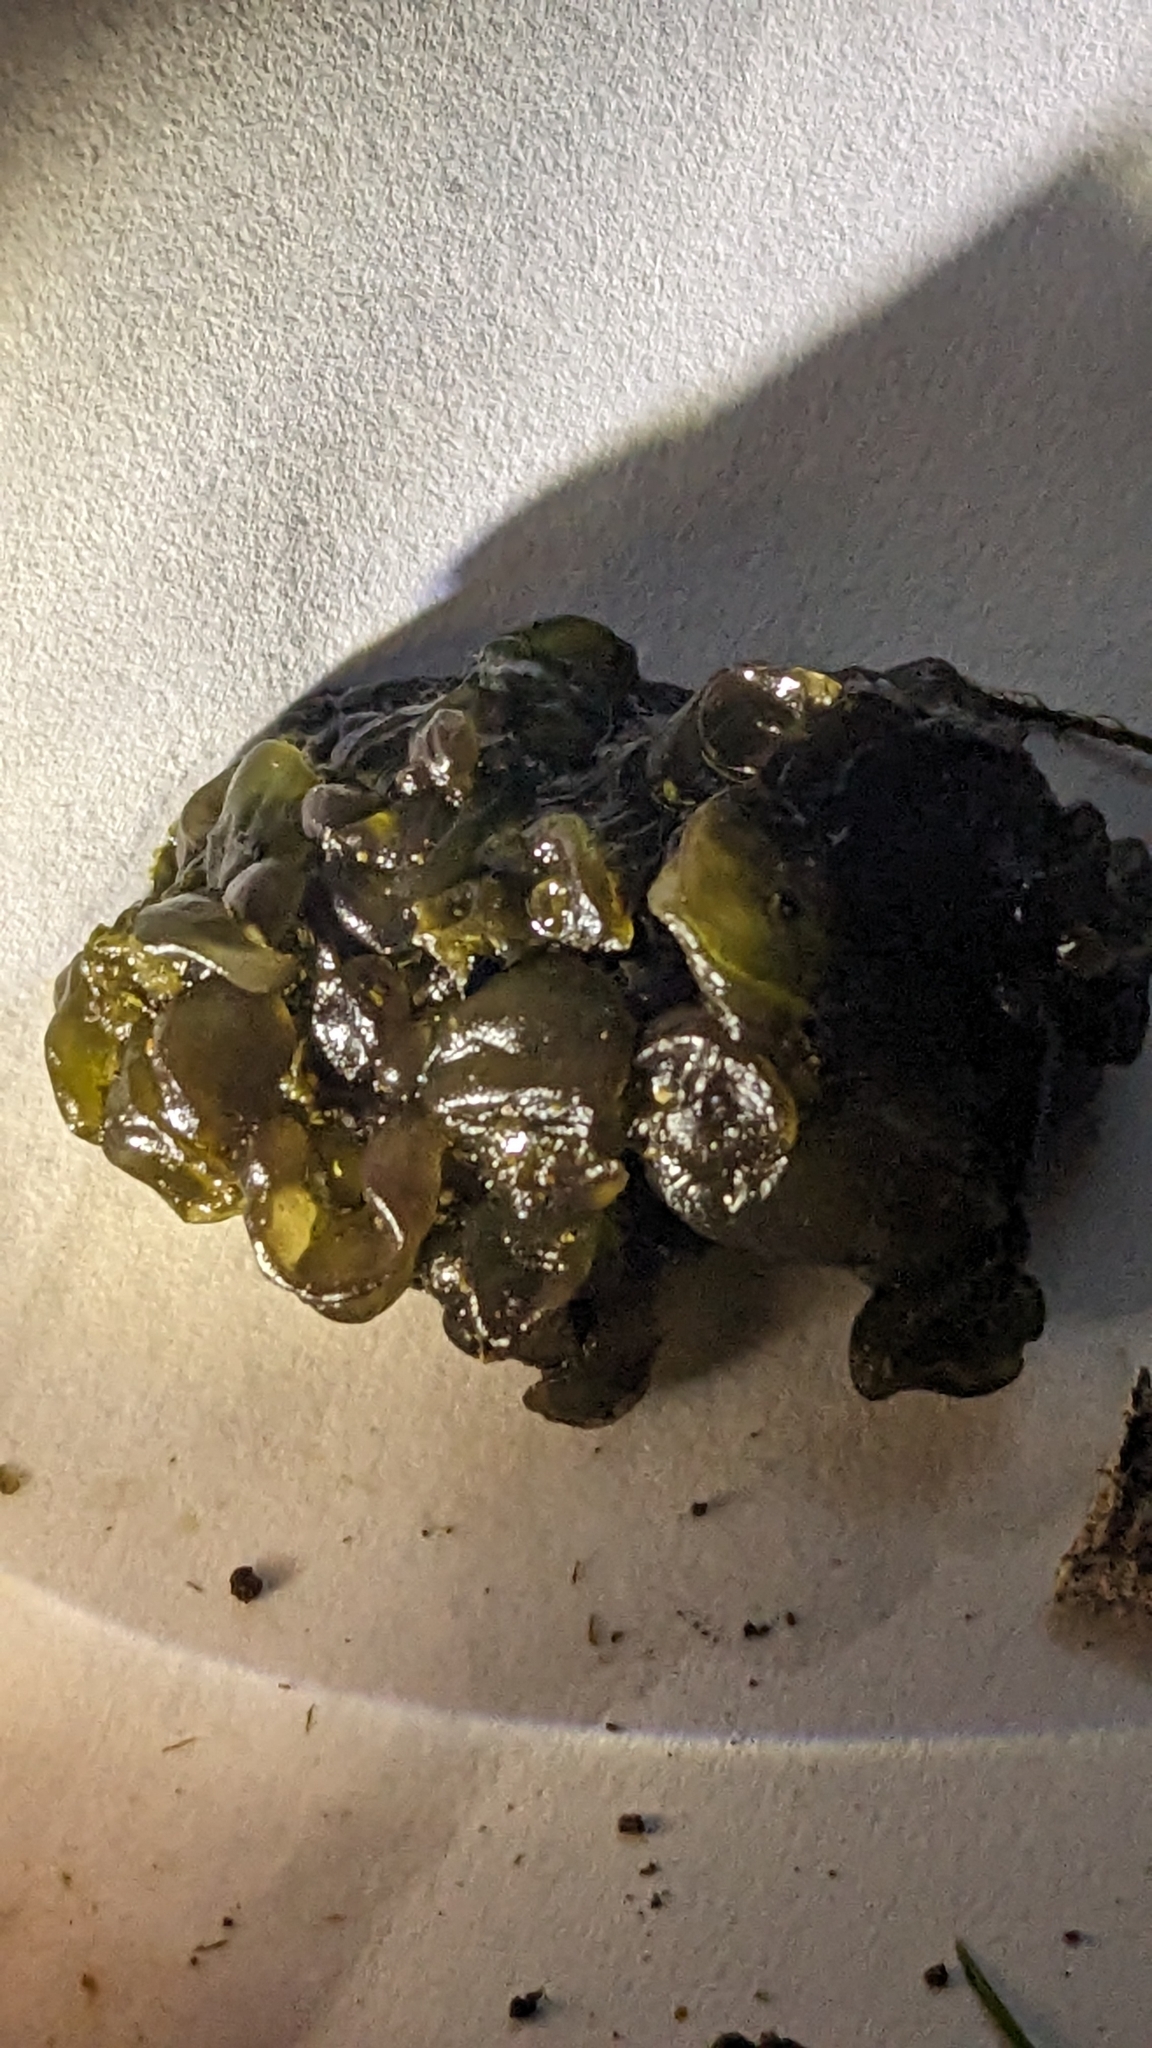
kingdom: Bacteria
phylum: Cyanobacteria
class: Cyanobacteriia
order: Cyanobacteriales
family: Nostocaceae
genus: Nostoc
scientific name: Nostoc commune
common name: Star jelly
